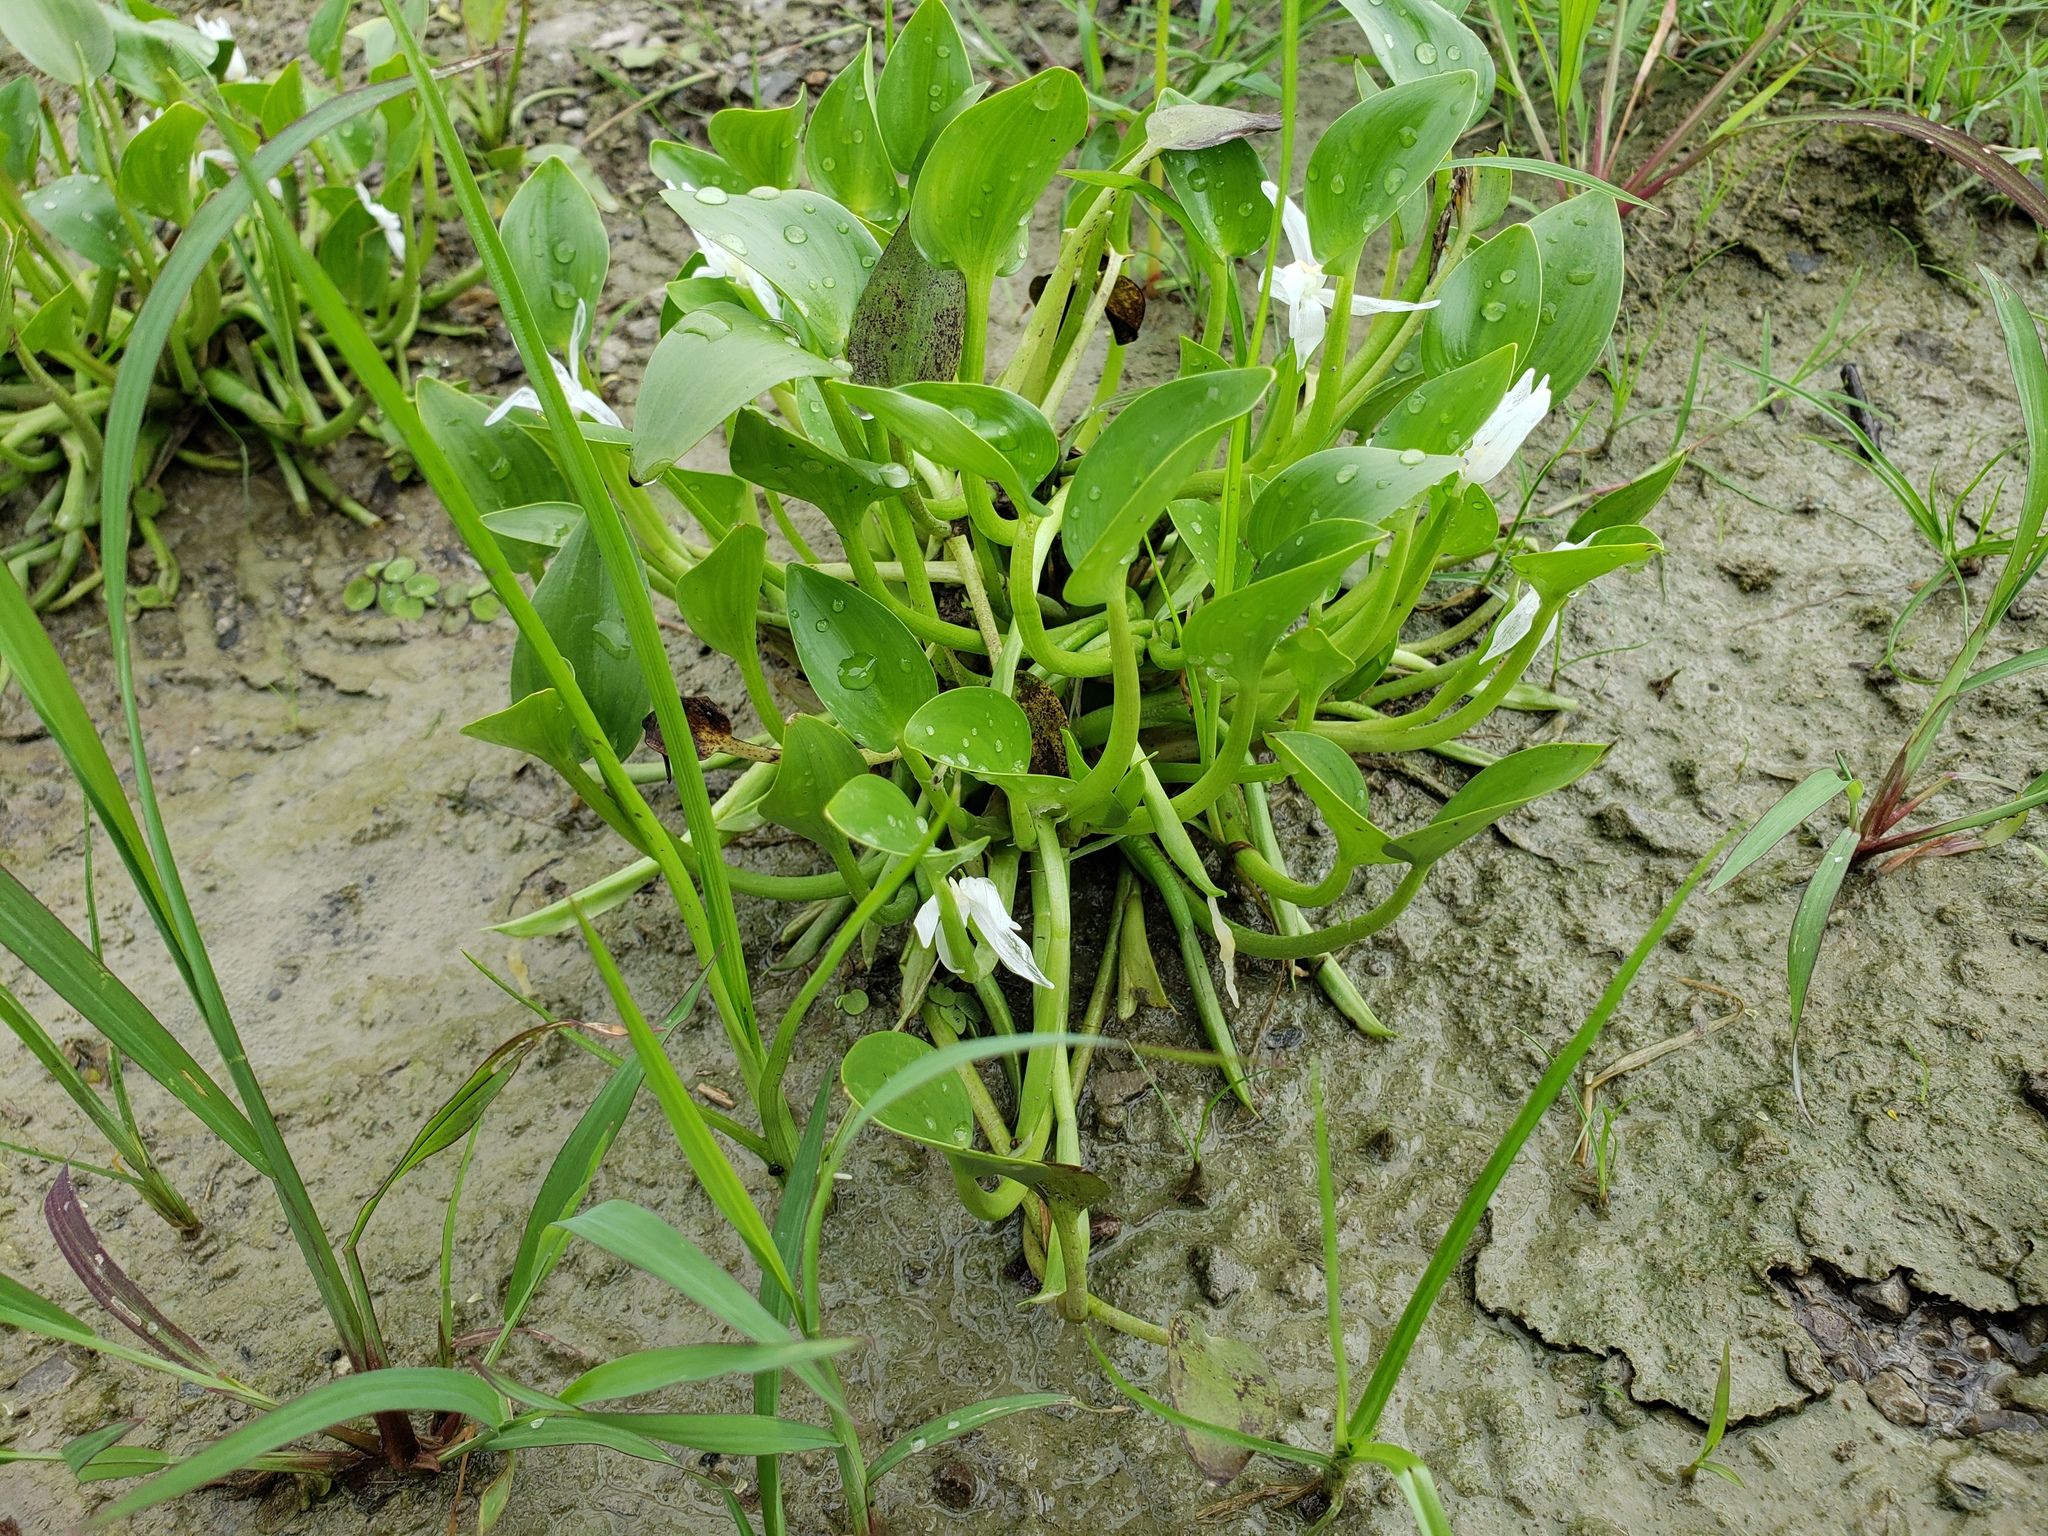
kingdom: Plantae
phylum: Tracheophyta
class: Liliopsida
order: Commelinales
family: Pontederiaceae
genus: Heteranthera
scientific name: Heteranthera limosa
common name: Blue mud-plantain
